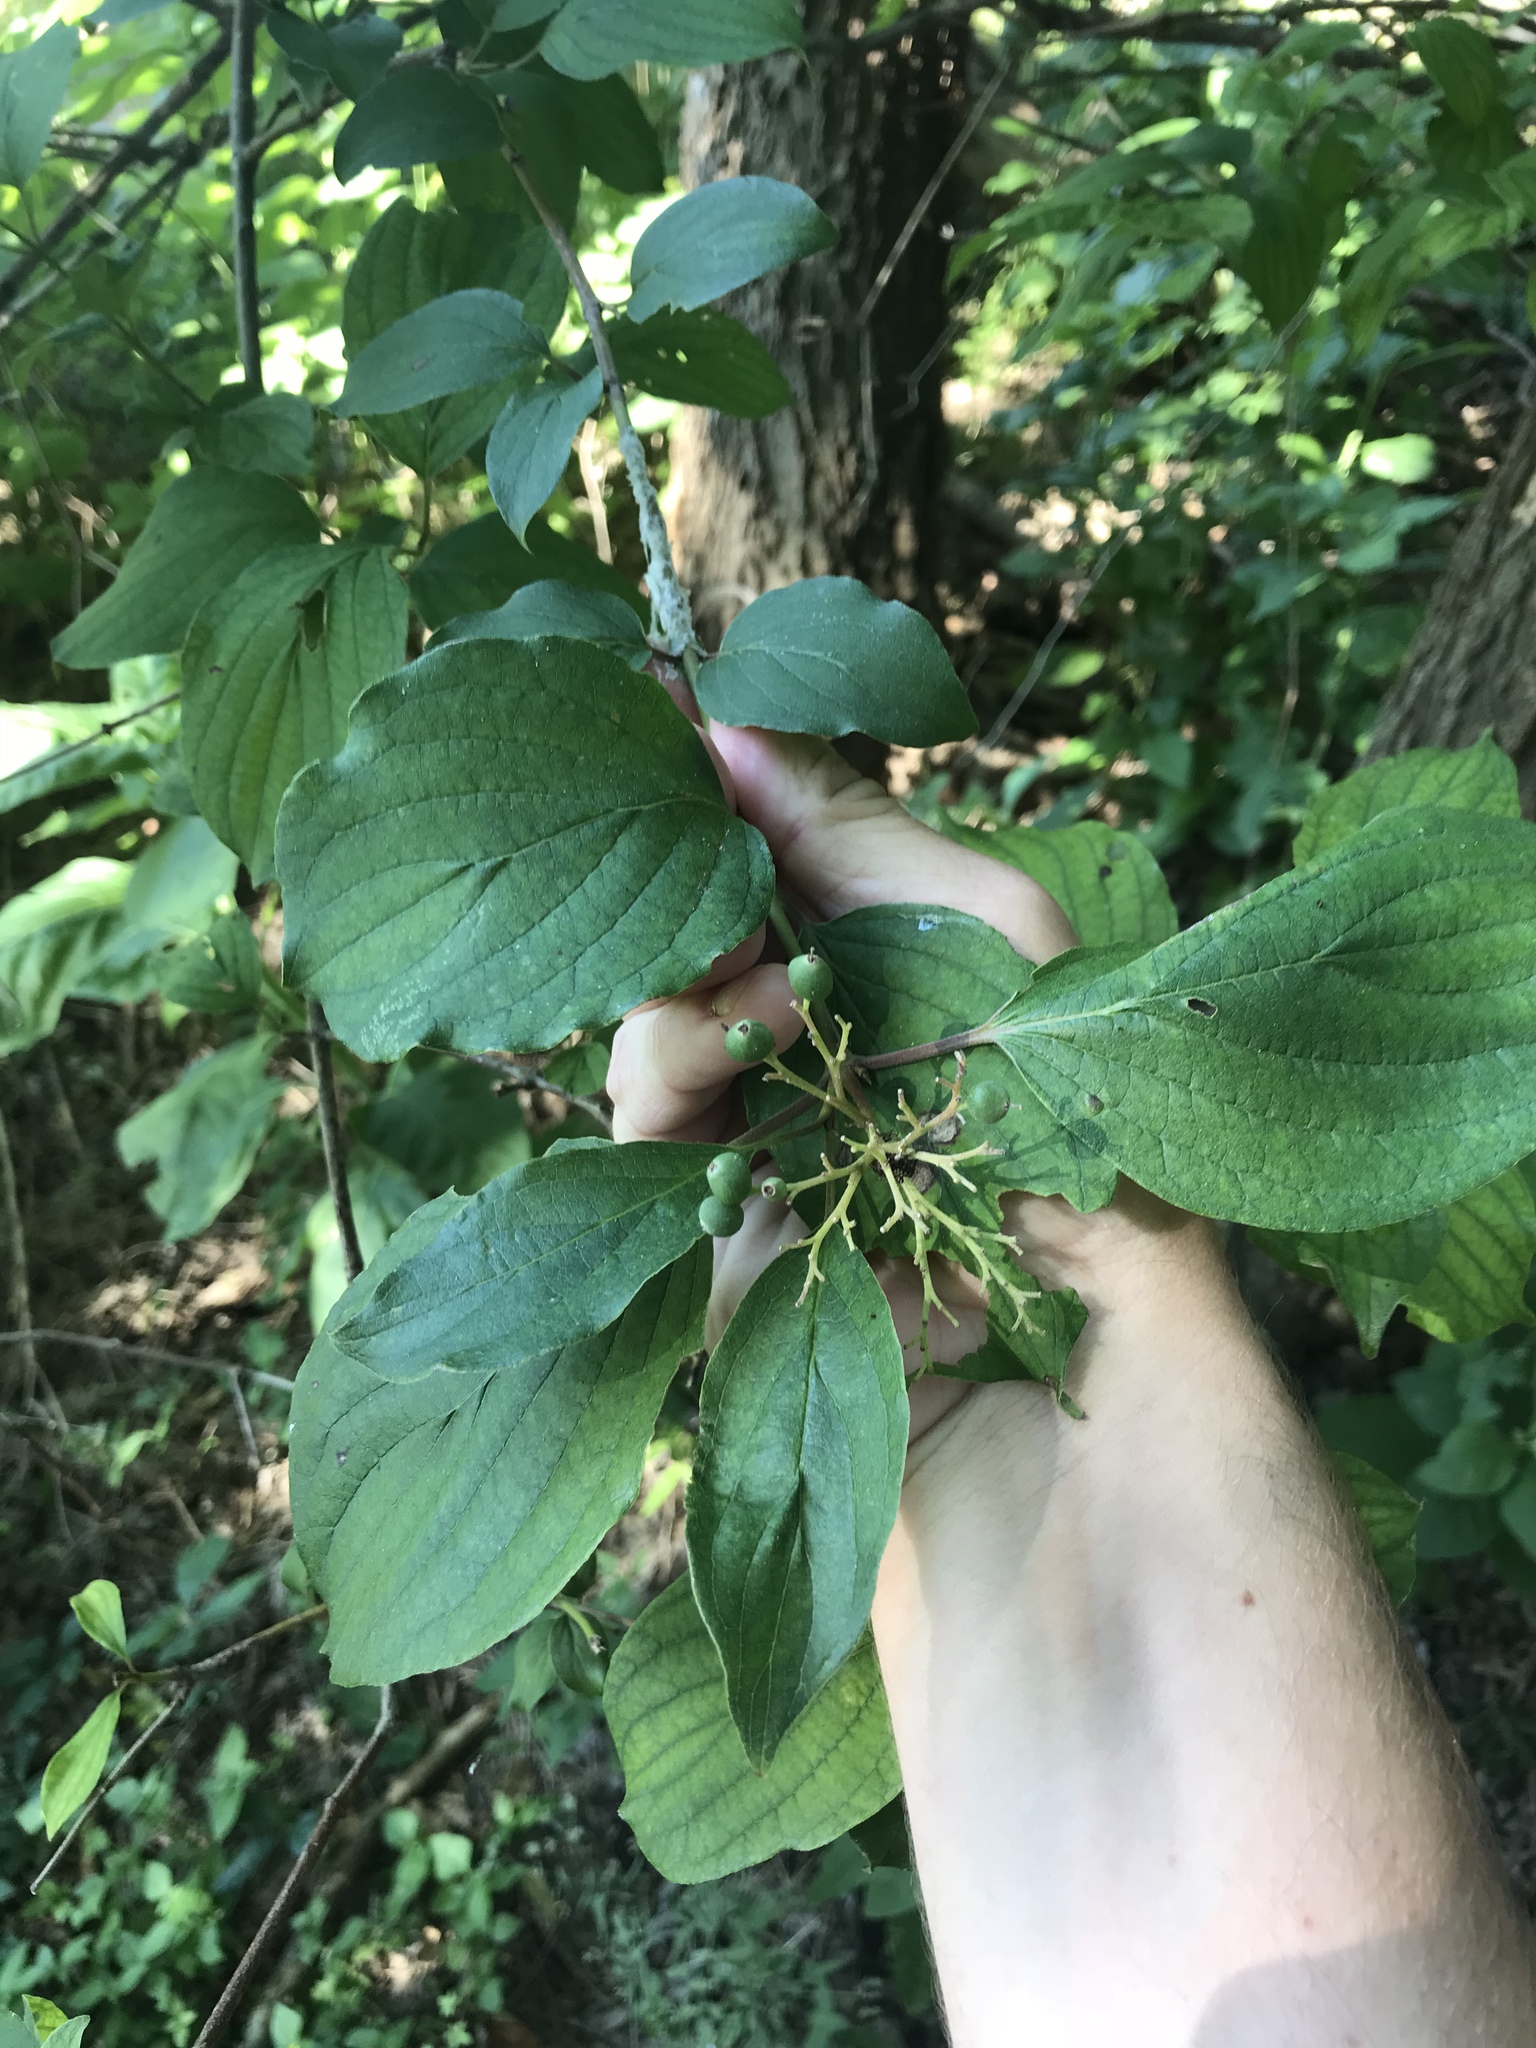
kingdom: Plantae
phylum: Tracheophyta
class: Magnoliopsida
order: Cornales
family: Cornaceae
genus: Cornus
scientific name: Cornus drummondii
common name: Rough-leaf dogwood
